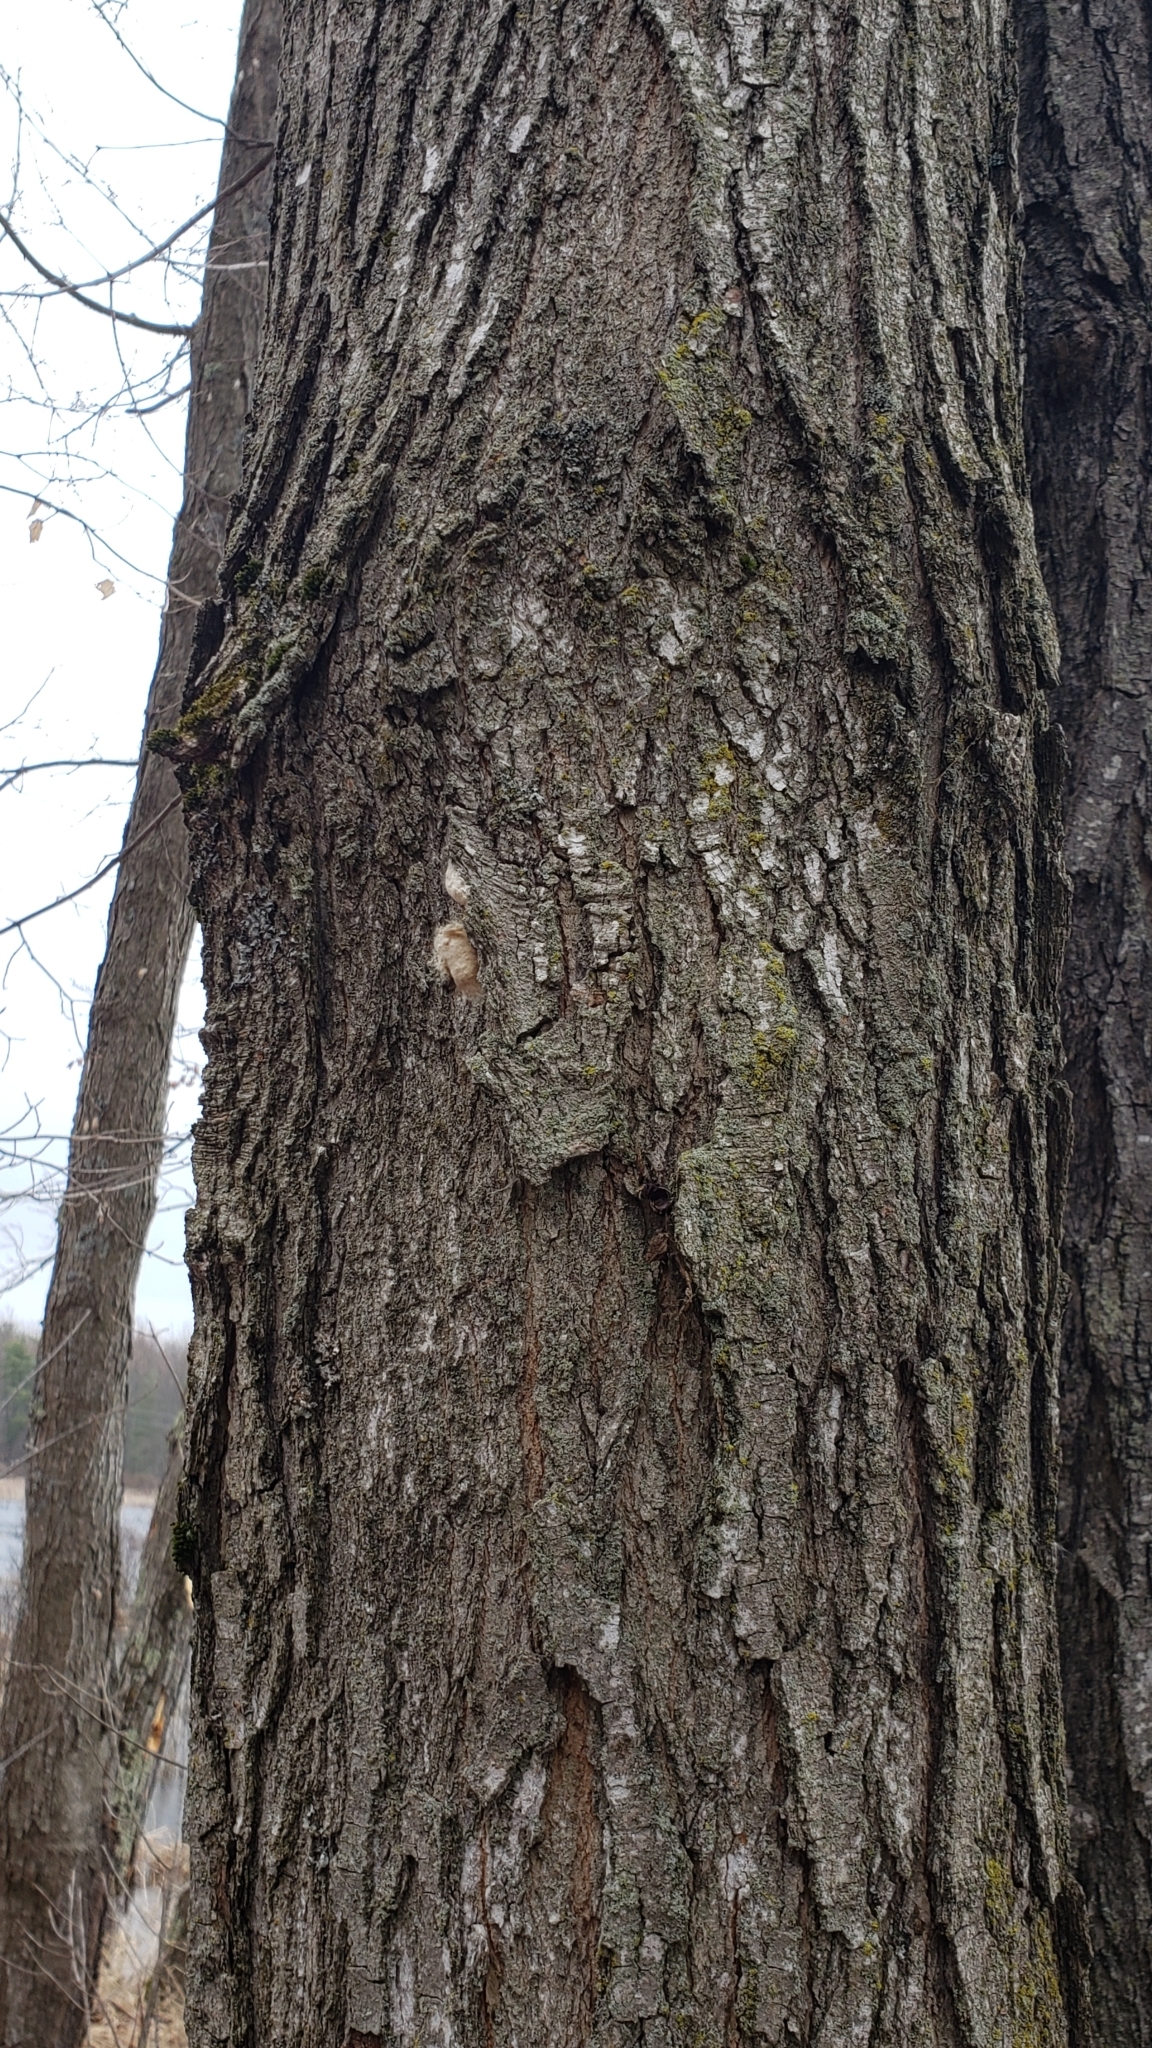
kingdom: Animalia
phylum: Arthropoda
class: Insecta
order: Lepidoptera
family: Erebidae
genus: Lymantria
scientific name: Lymantria dispar
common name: Gypsy moth
